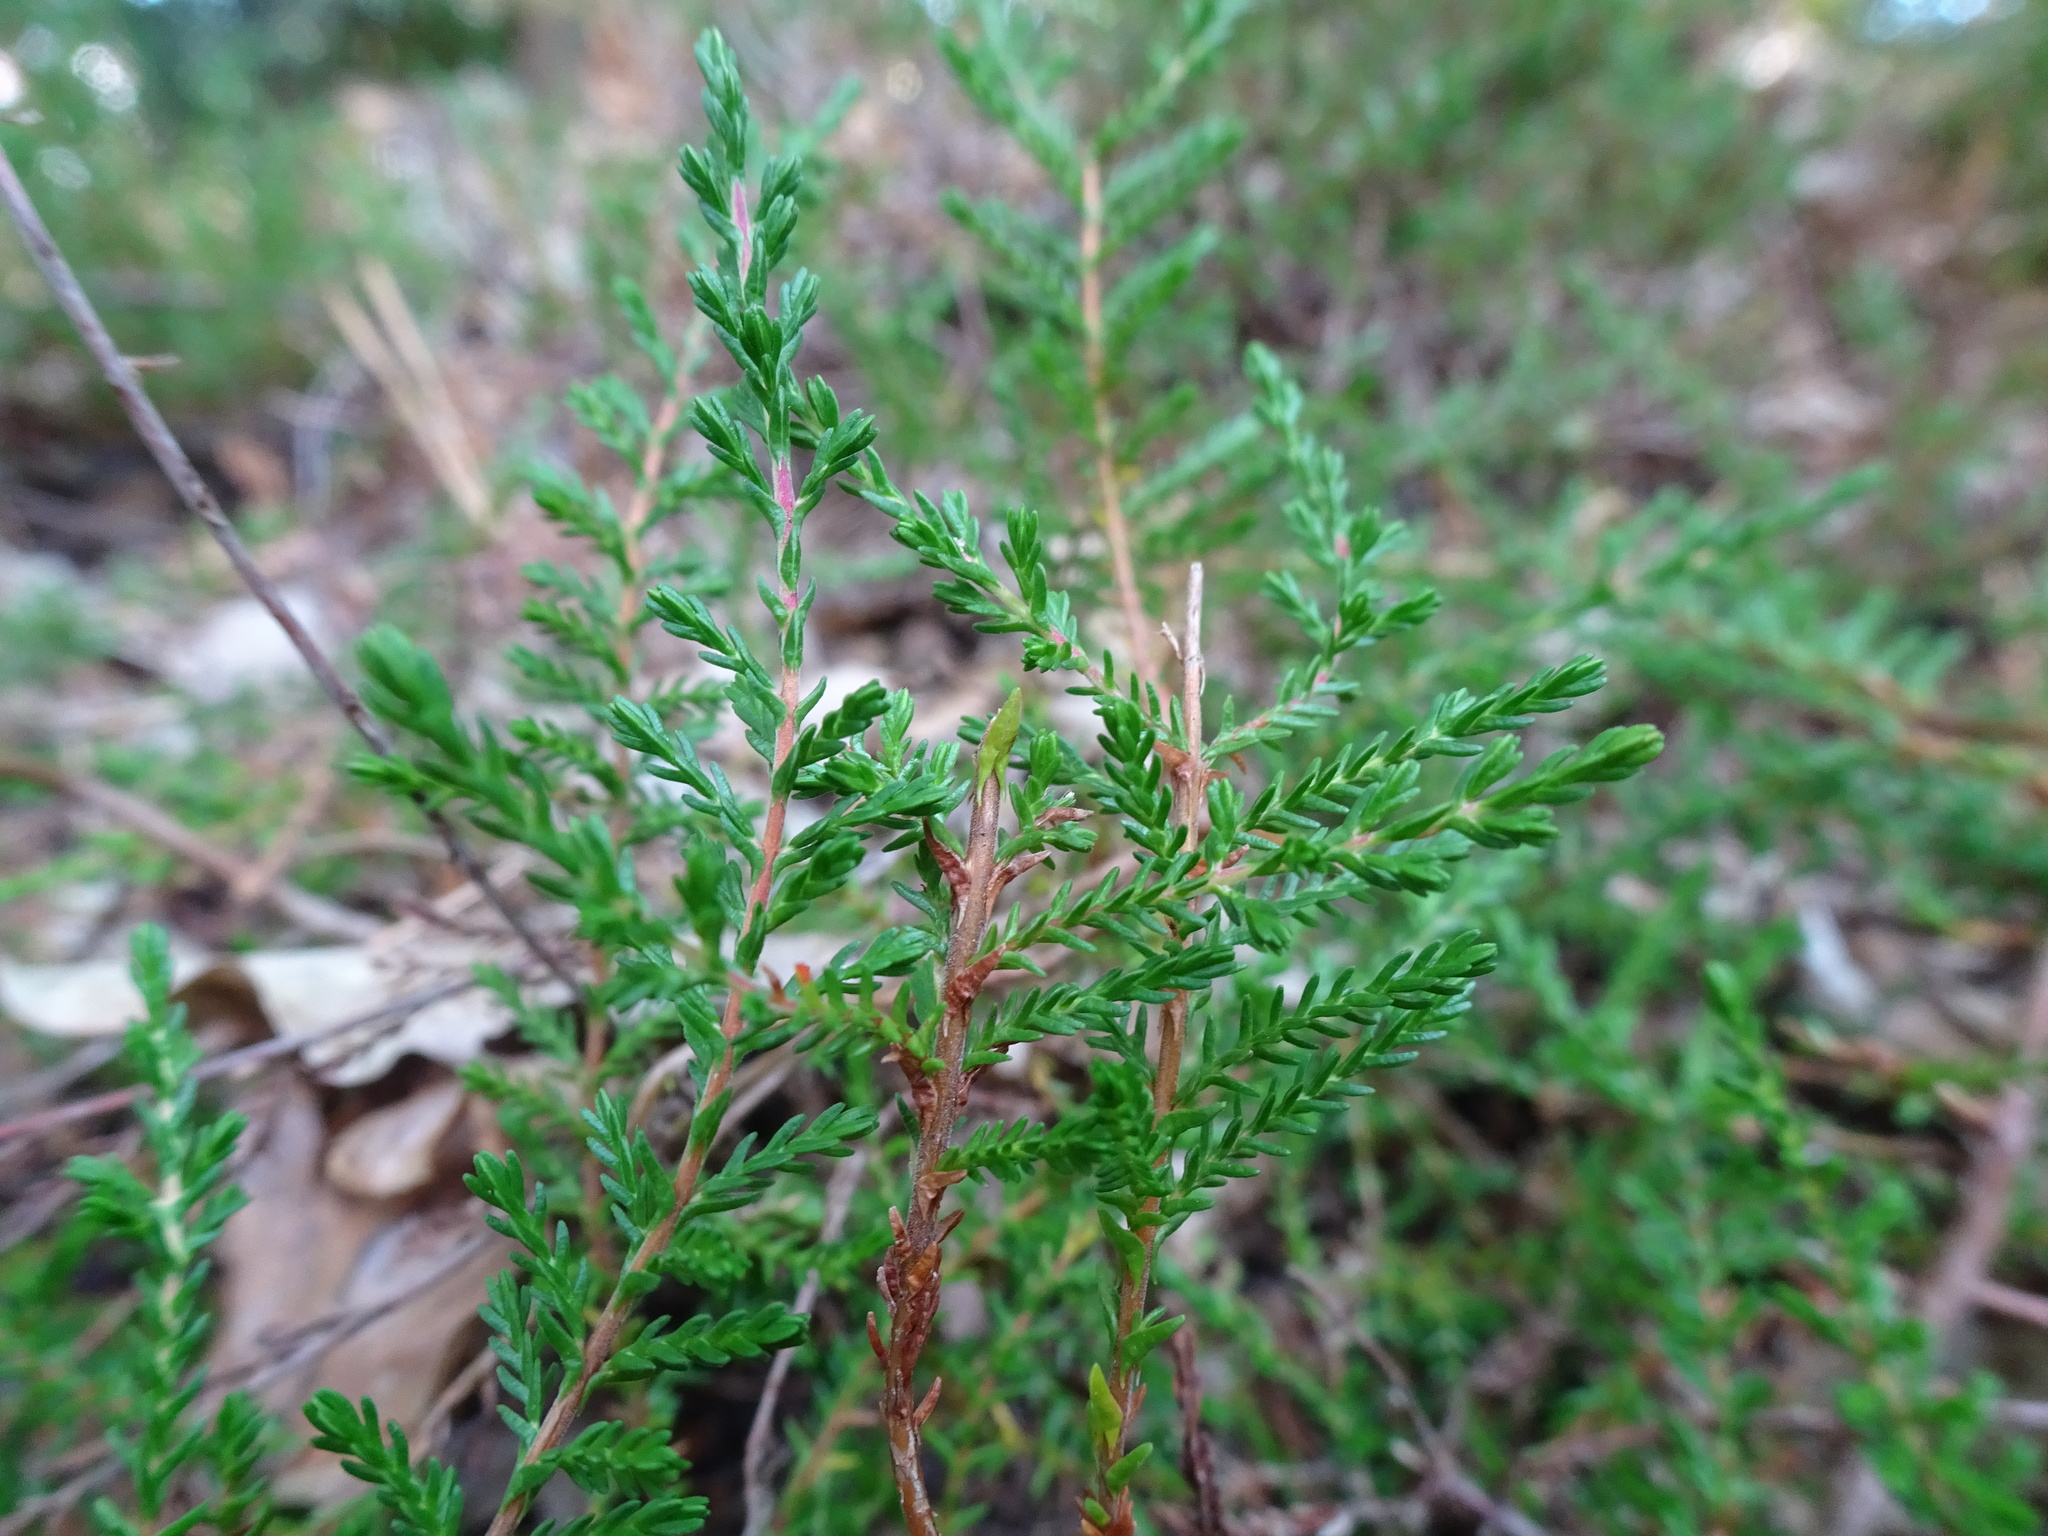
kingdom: Plantae
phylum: Tracheophyta
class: Magnoliopsida
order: Ericales
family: Ericaceae
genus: Calluna
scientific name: Calluna vulgaris
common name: Heather
